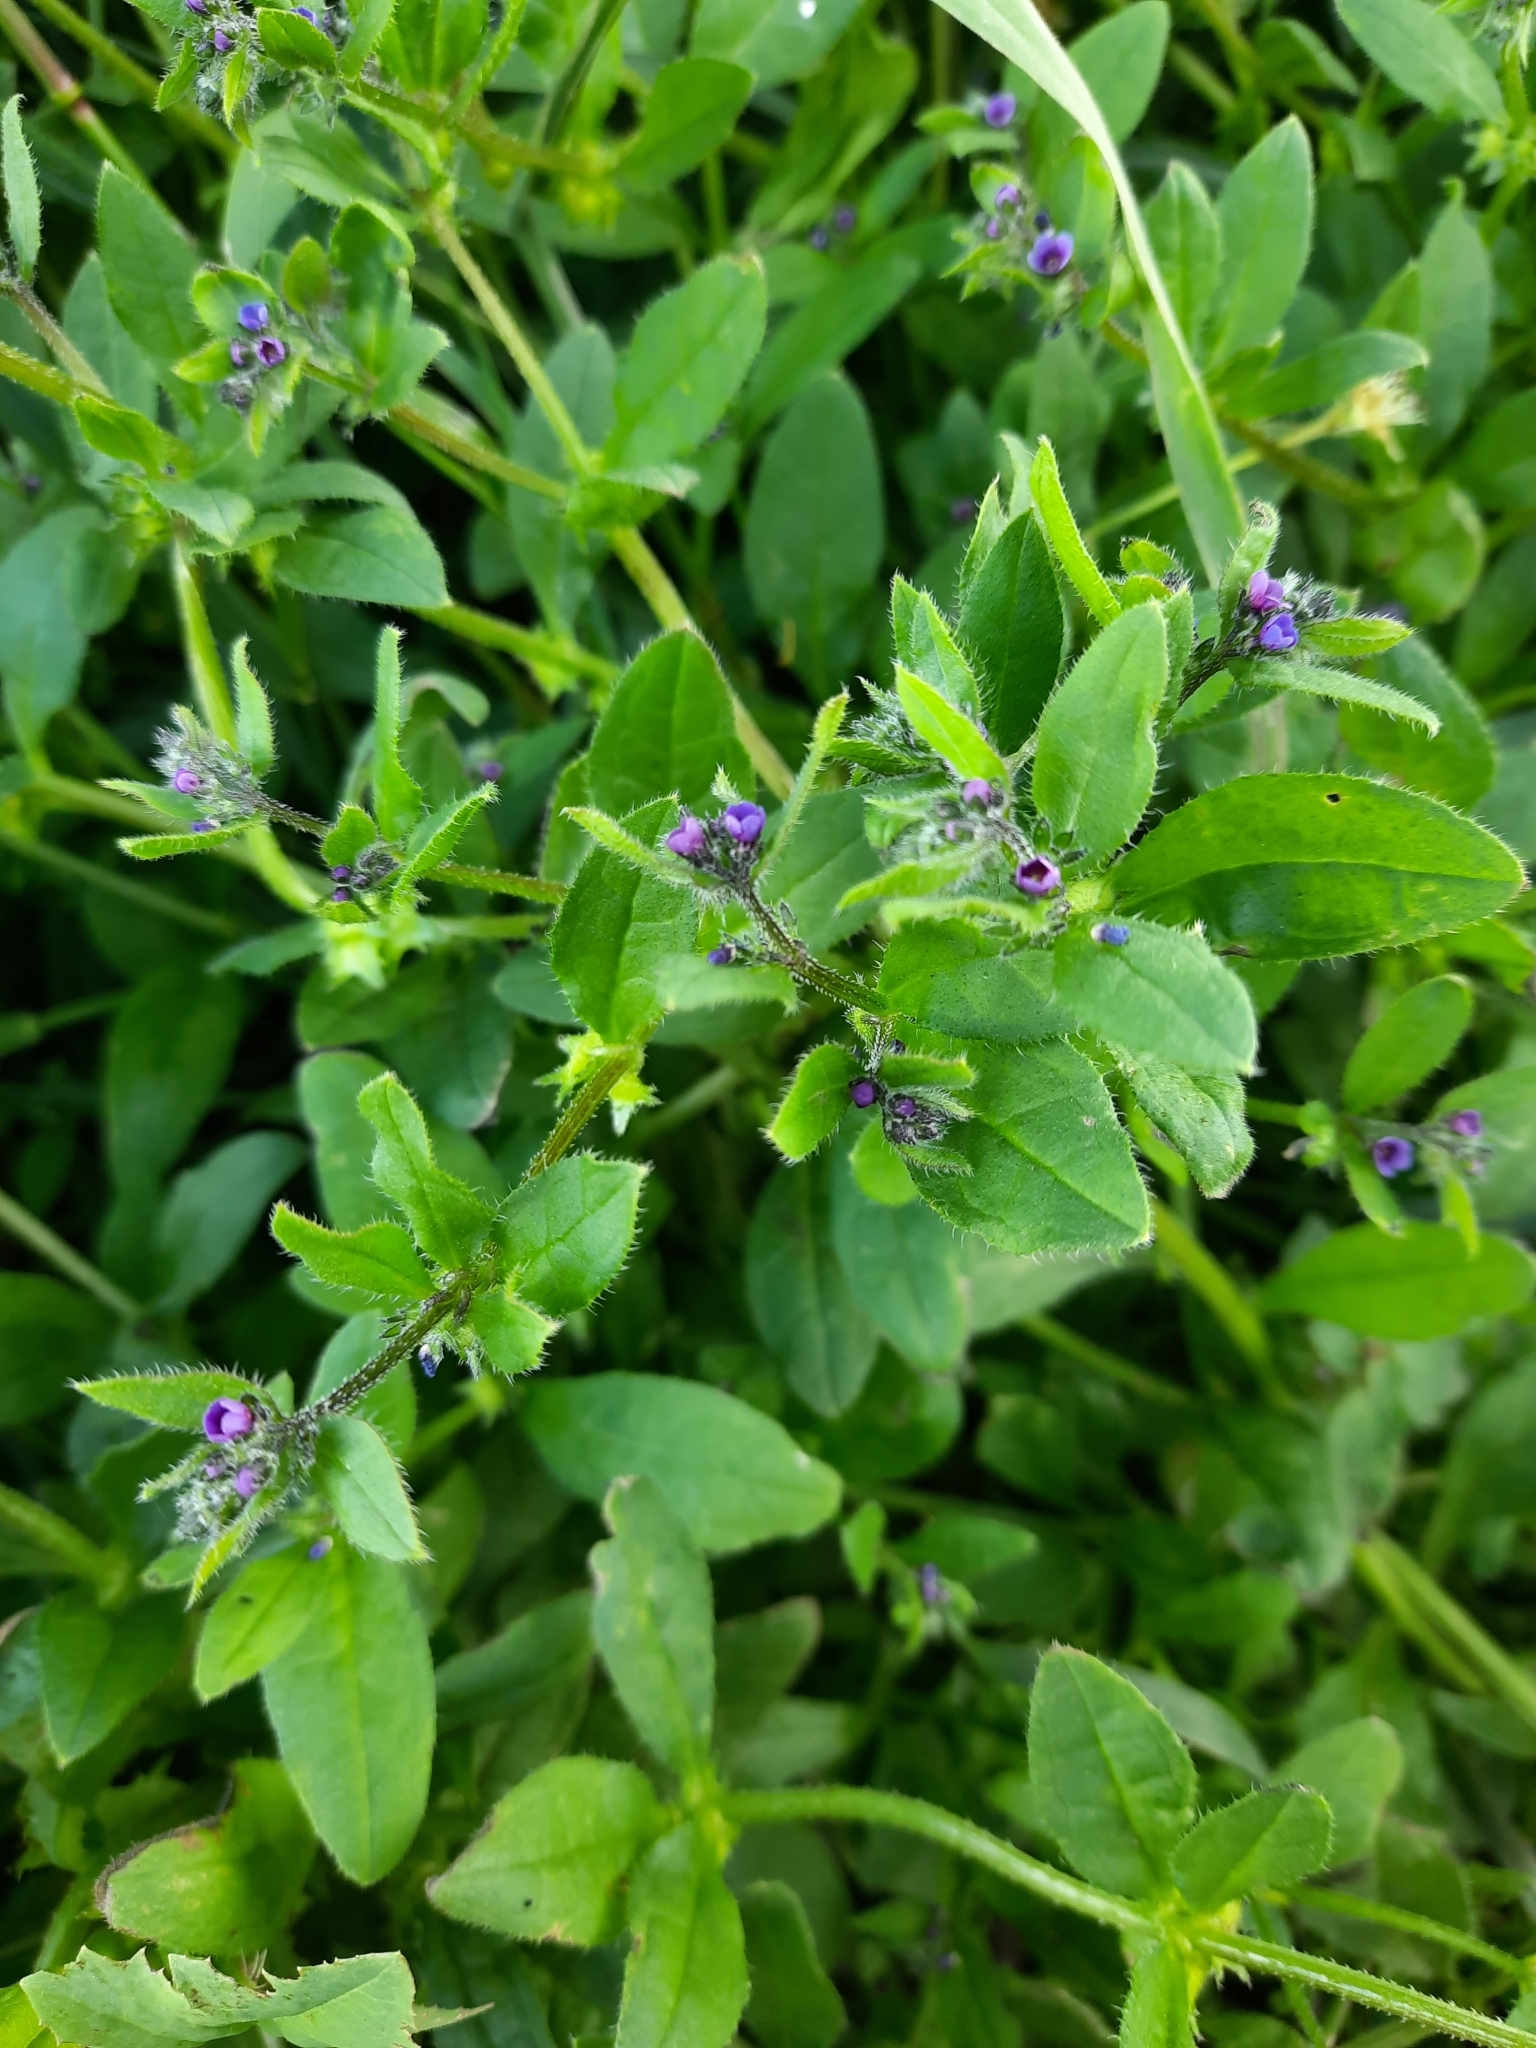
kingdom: Plantae
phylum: Tracheophyta
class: Magnoliopsida
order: Boraginales
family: Boraginaceae
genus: Asperugo
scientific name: Asperugo procumbens
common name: Madwort
